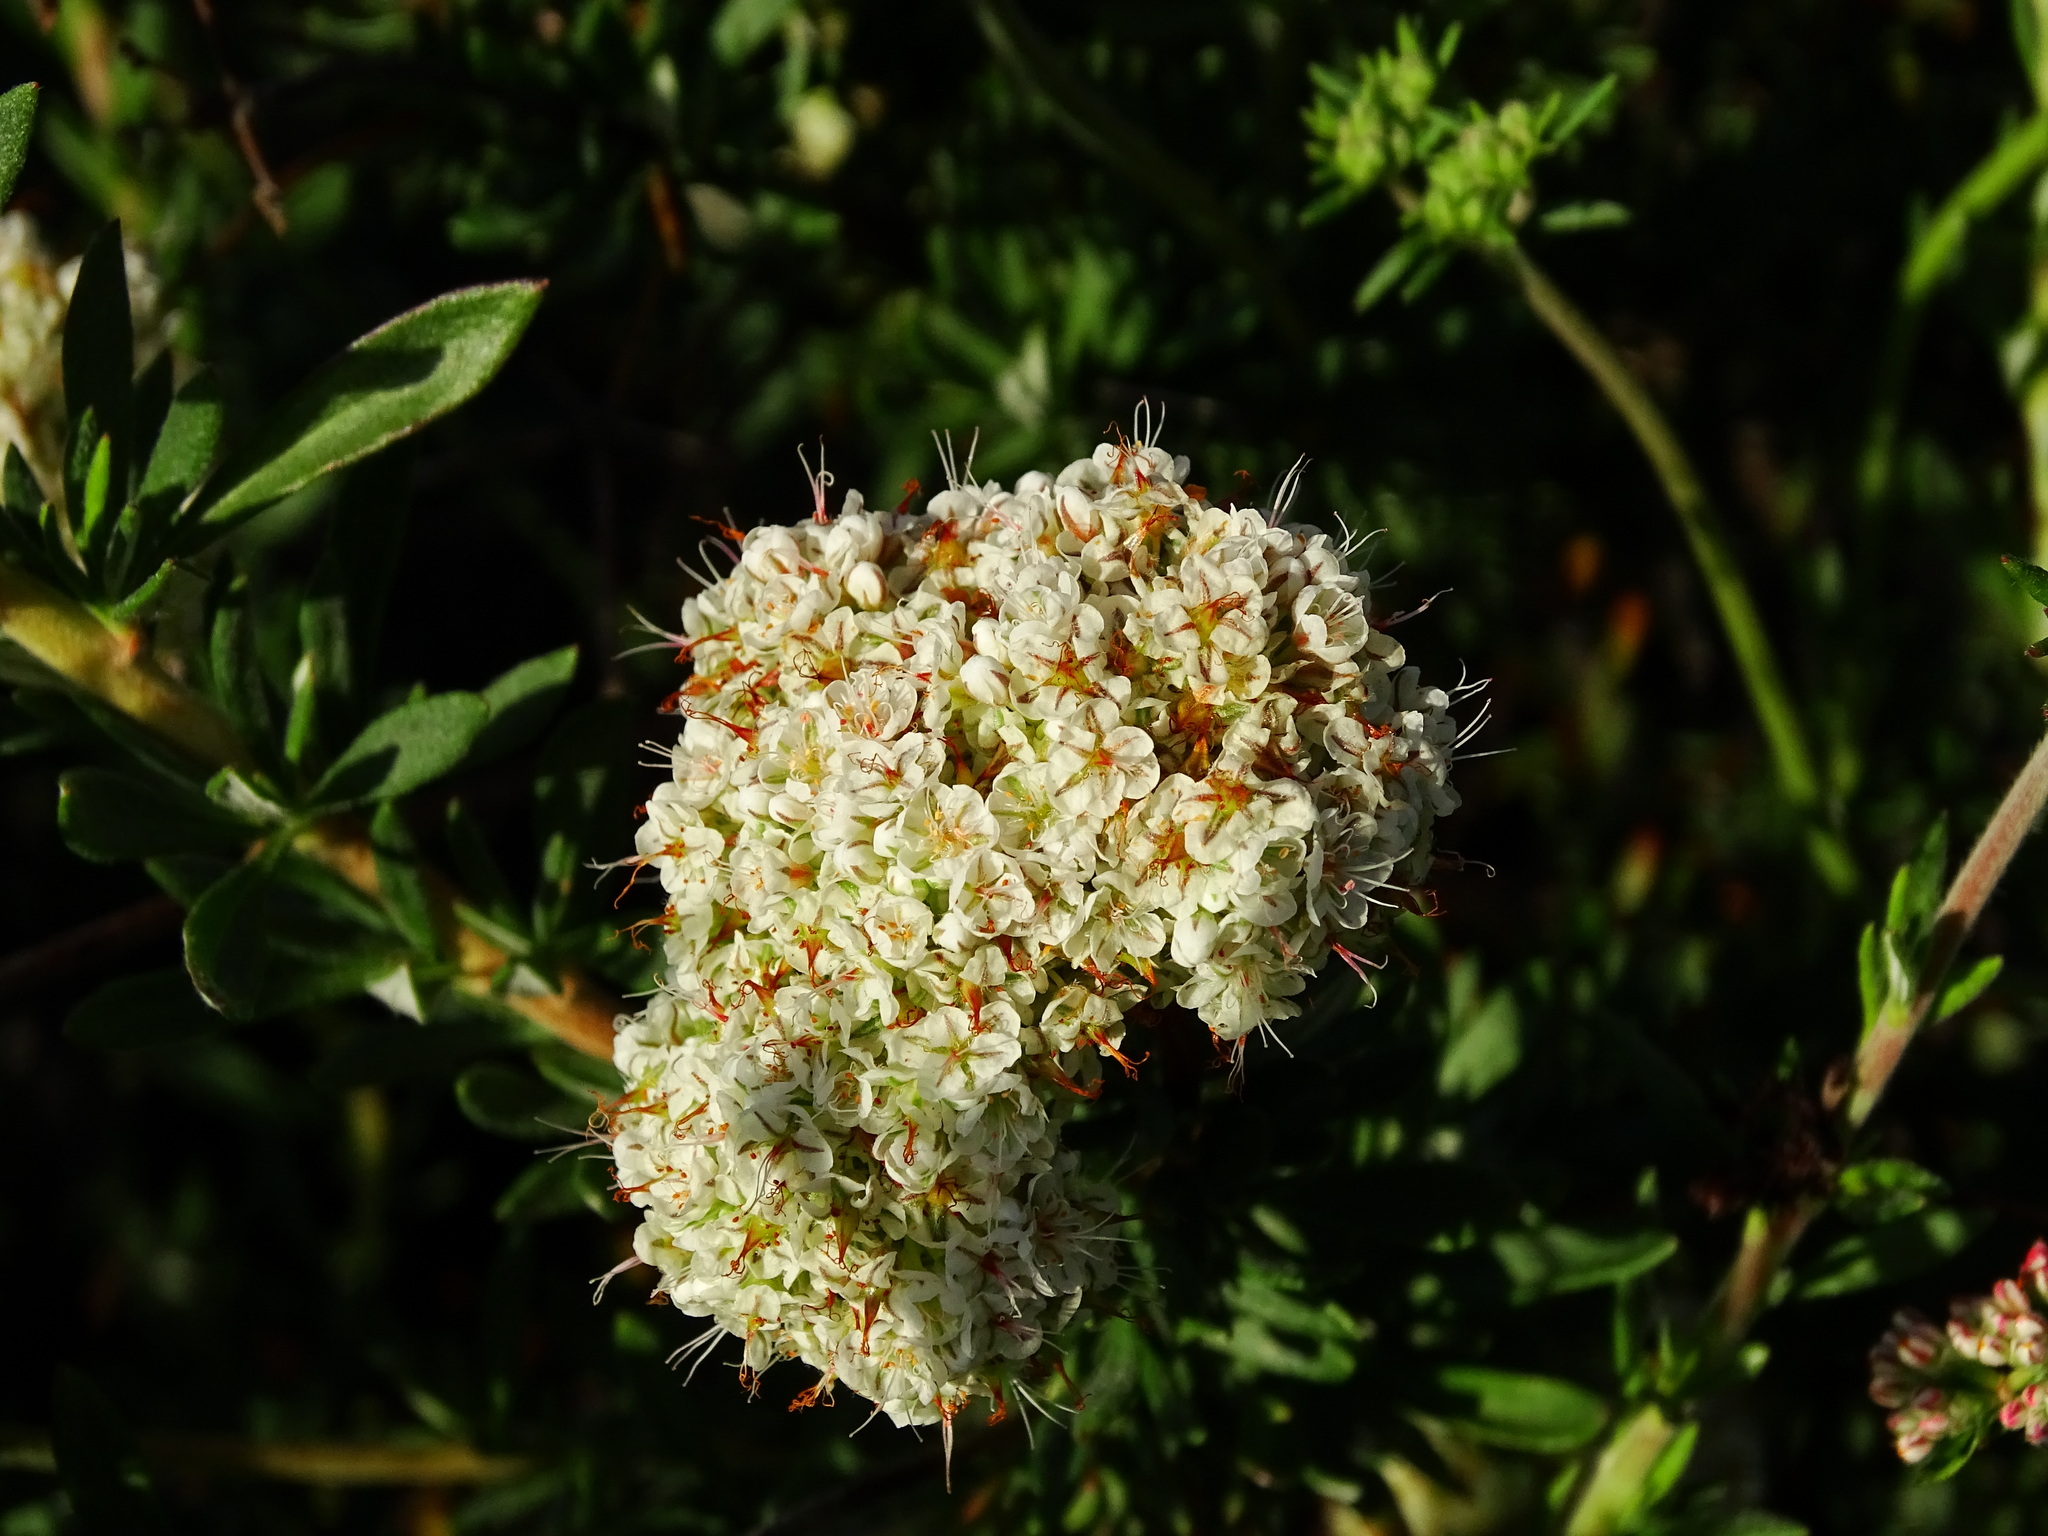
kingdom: Plantae
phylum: Tracheophyta
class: Magnoliopsida
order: Caryophyllales
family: Polygonaceae
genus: Eriogonum
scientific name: Eriogonum fasciculatum
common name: California wild buckwheat
